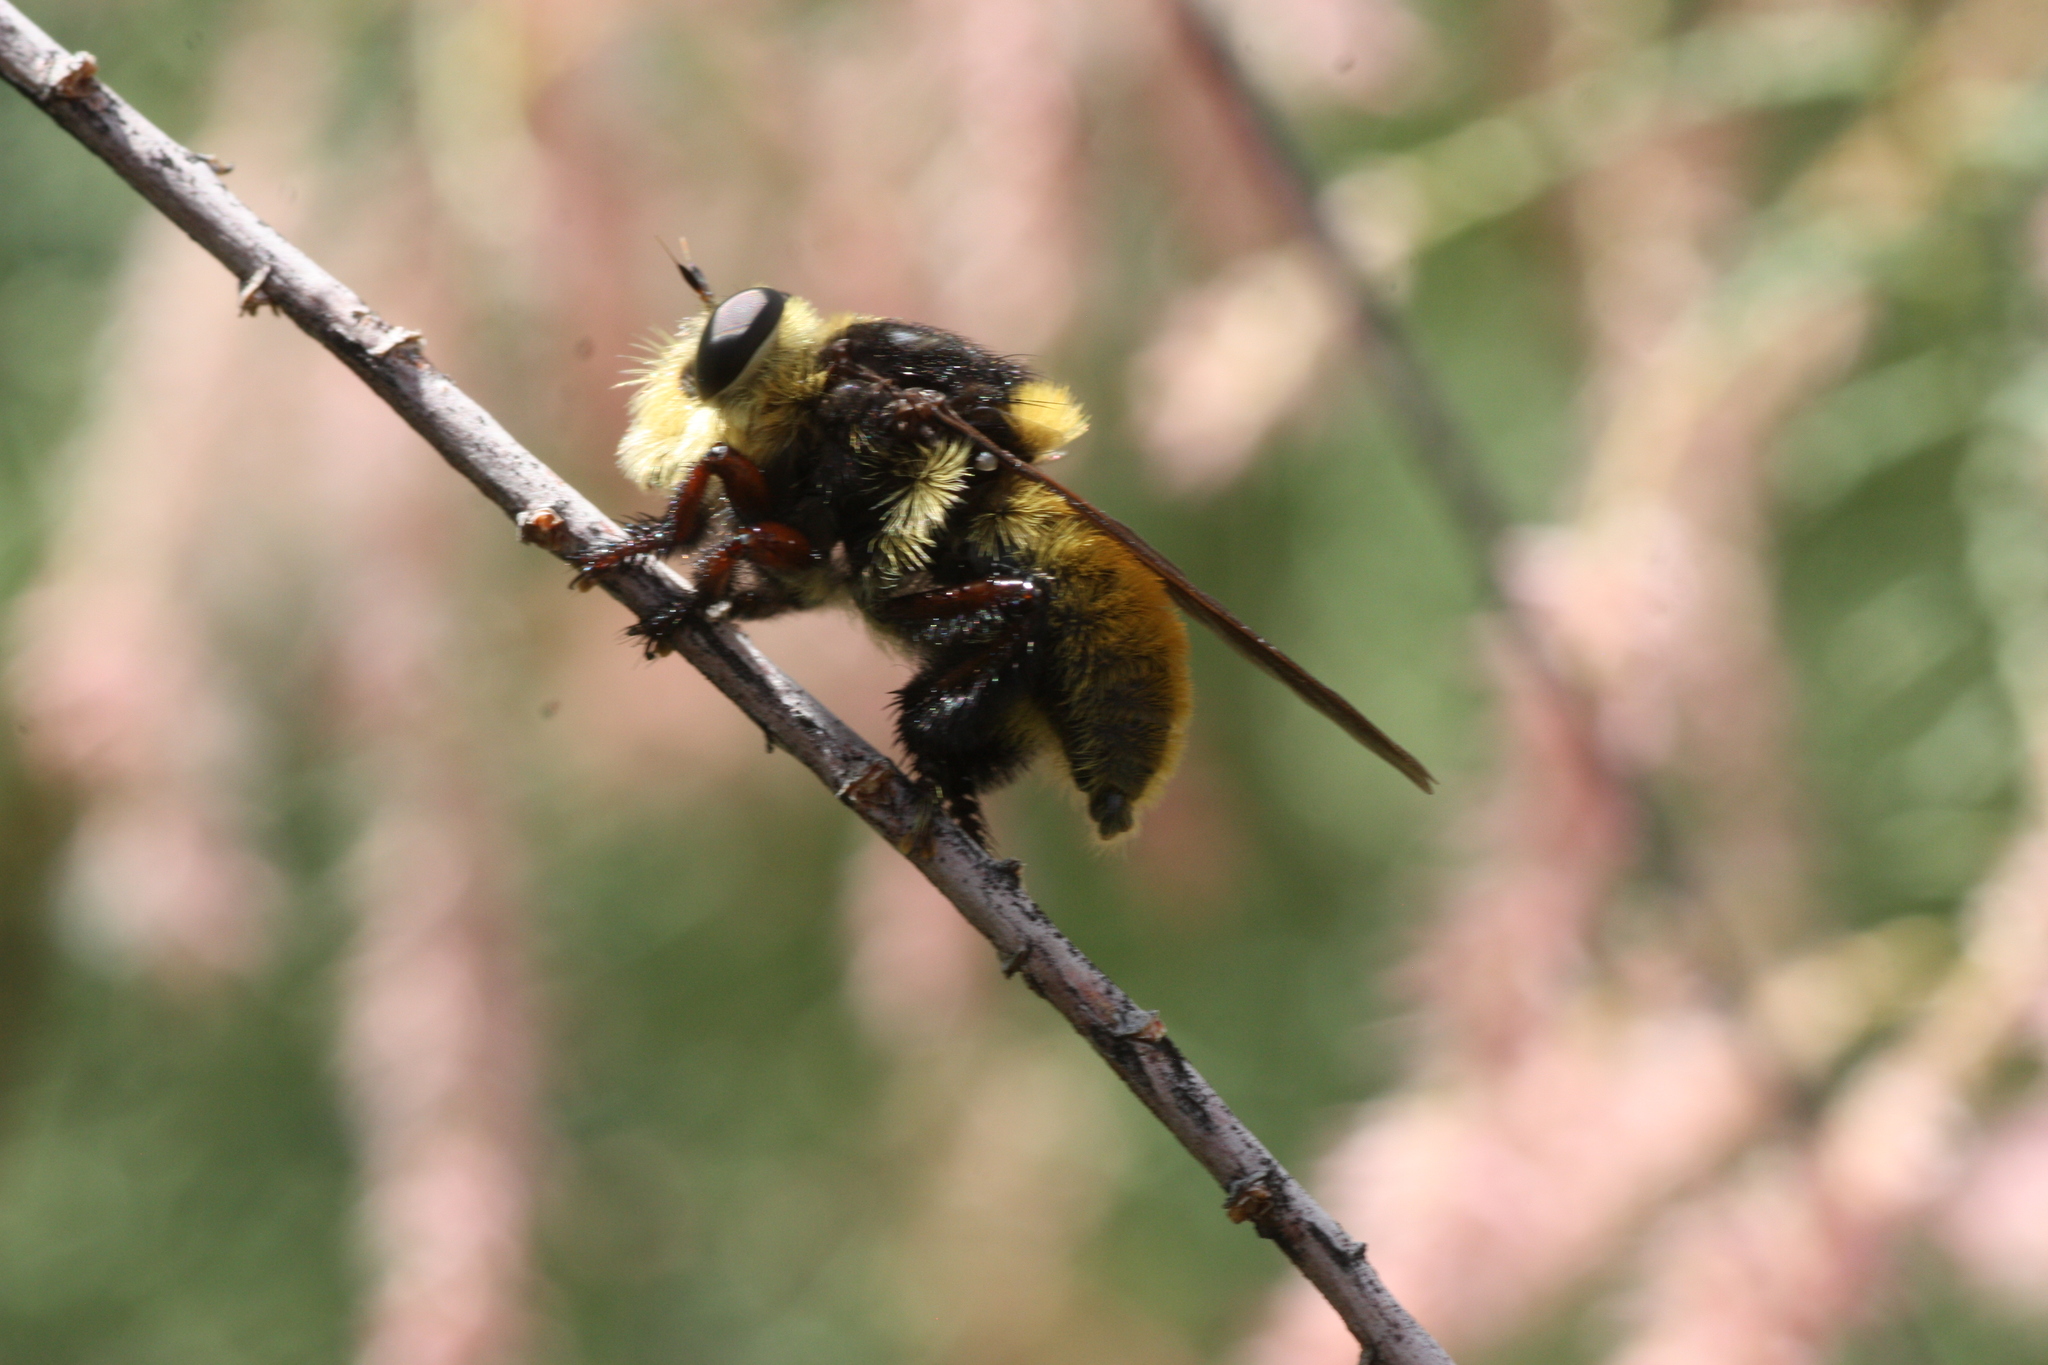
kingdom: Animalia
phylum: Arthropoda
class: Insecta
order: Diptera
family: Asilidae
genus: Mallophora
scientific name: Mallophora fautrix
